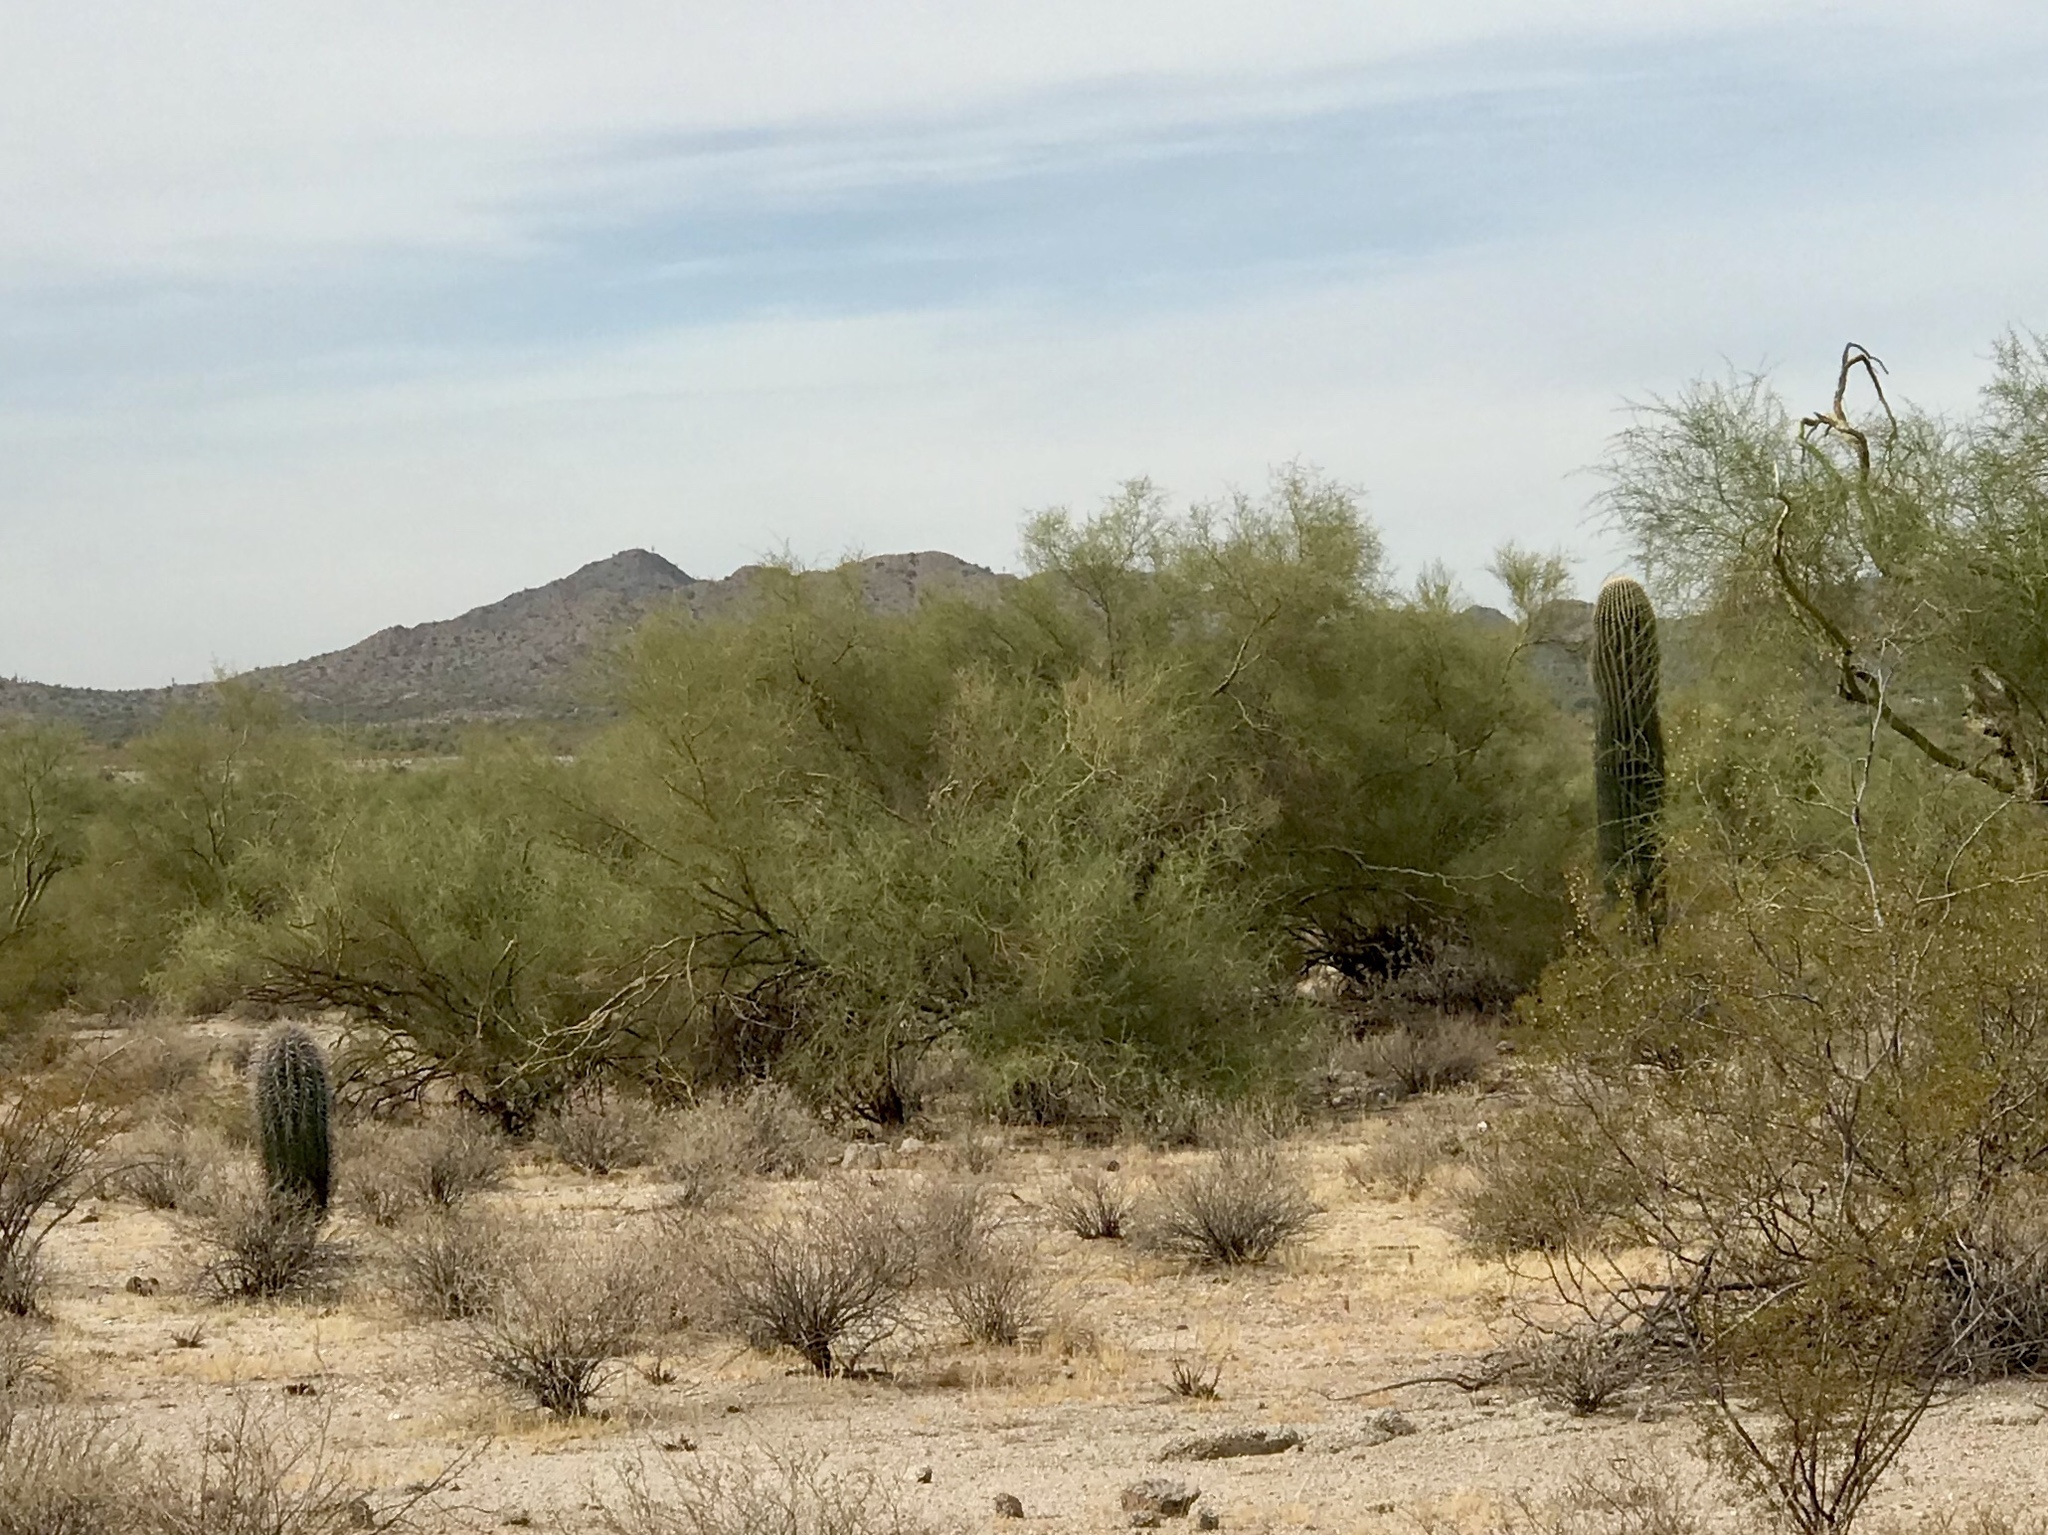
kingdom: Plantae
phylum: Tracheophyta
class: Magnoliopsida
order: Caryophyllales
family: Cactaceae
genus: Carnegiea
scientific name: Carnegiea gigantea
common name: Saguaro
